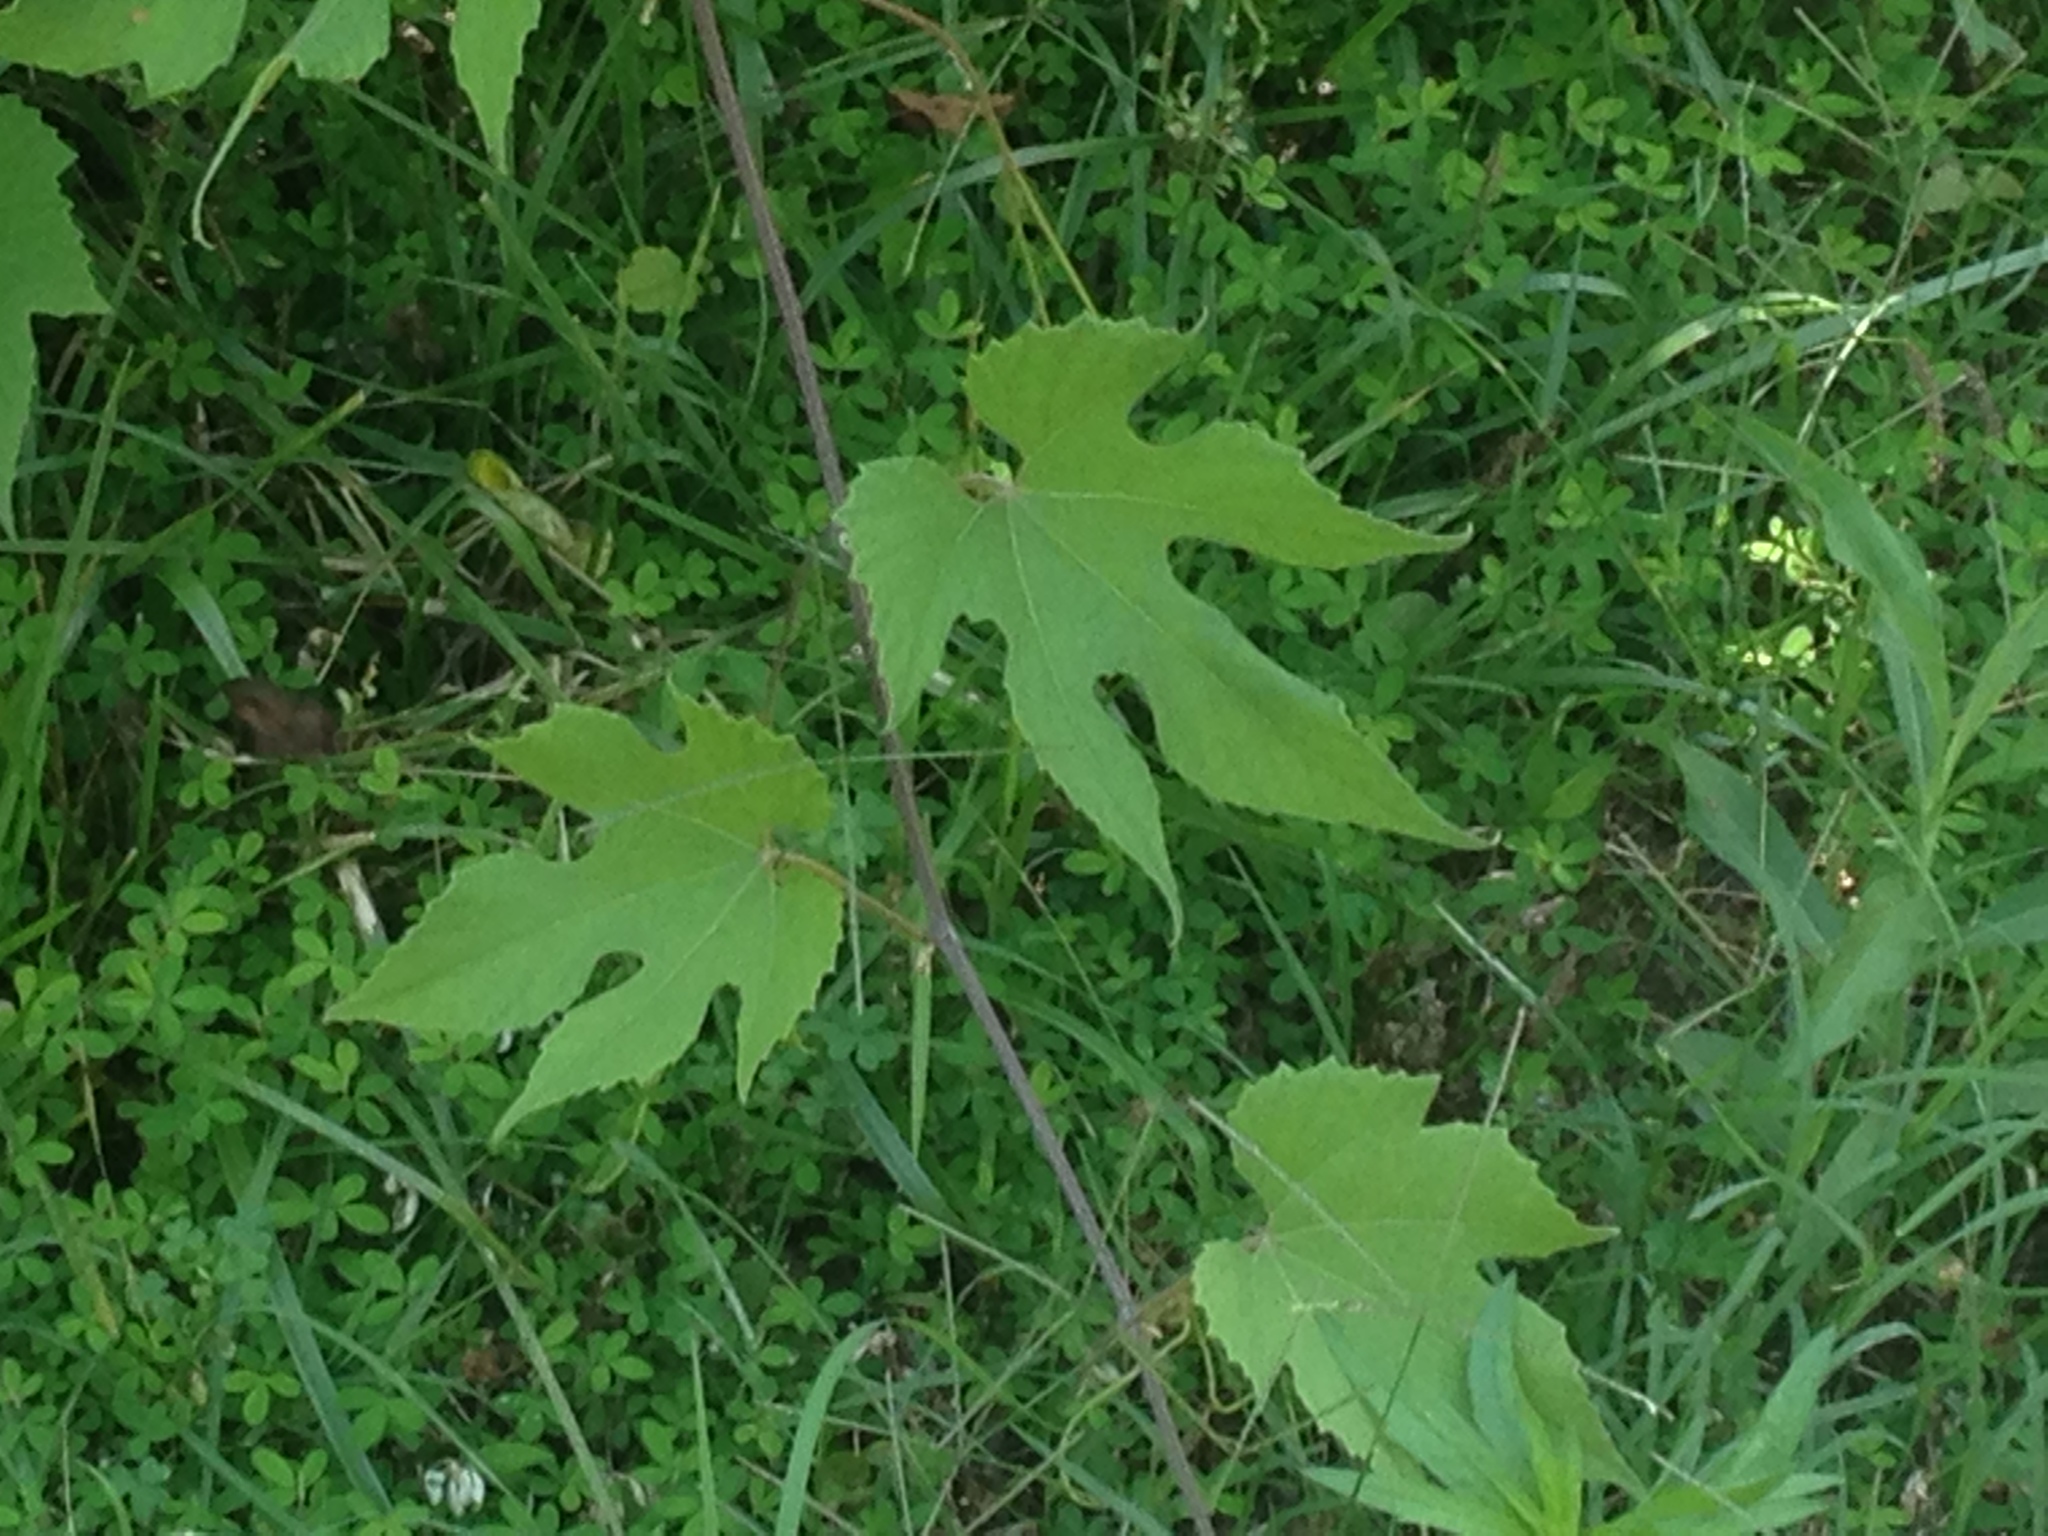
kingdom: Plantae
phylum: Tracheophyta
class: Magnoliopsida
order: Vitales
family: Vitaceae
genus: Vitis
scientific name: Vitis aestivalis
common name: Pigeon grape
